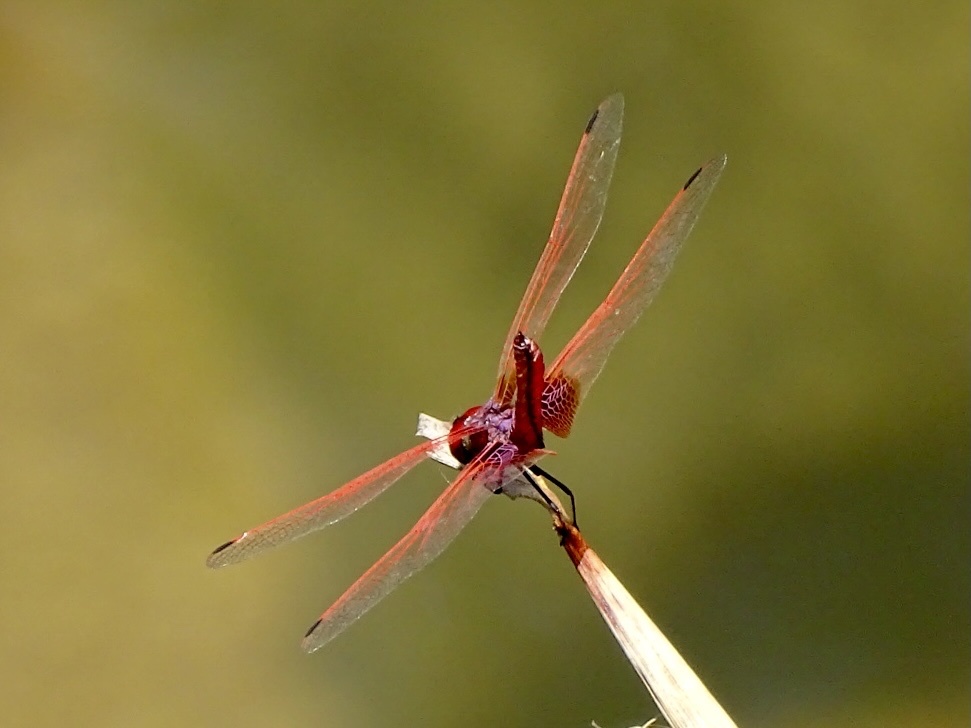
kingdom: Animalia
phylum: Arthropoda
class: Insecta
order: Odonata
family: Libellulidae
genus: Trithemis
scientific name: Trithemis aurora
